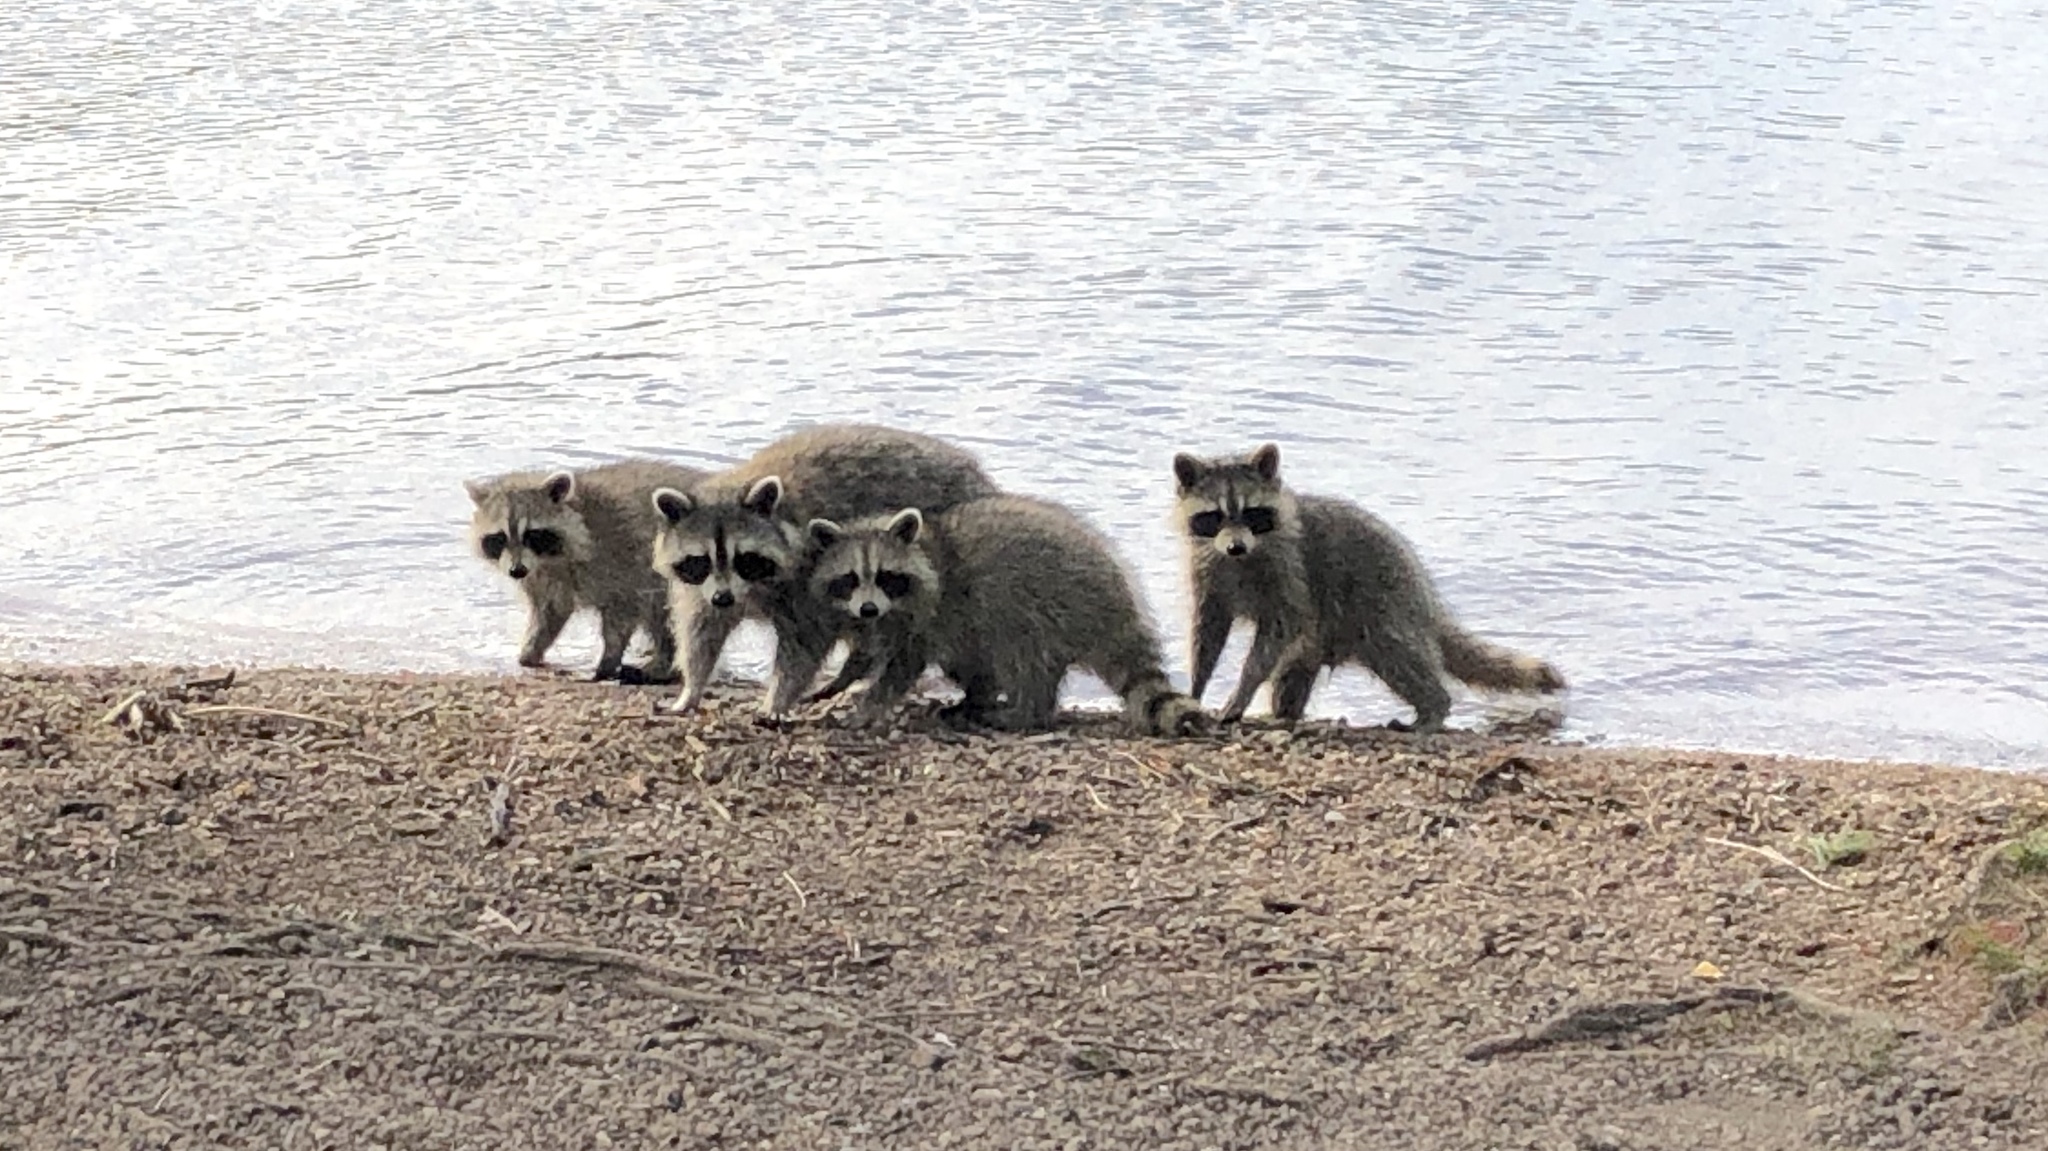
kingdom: Animalia
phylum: Chordata
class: Mammalia
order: Carnivora
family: Procyonidae
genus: Procyon
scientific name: Procyon lotor
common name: Raccoon
